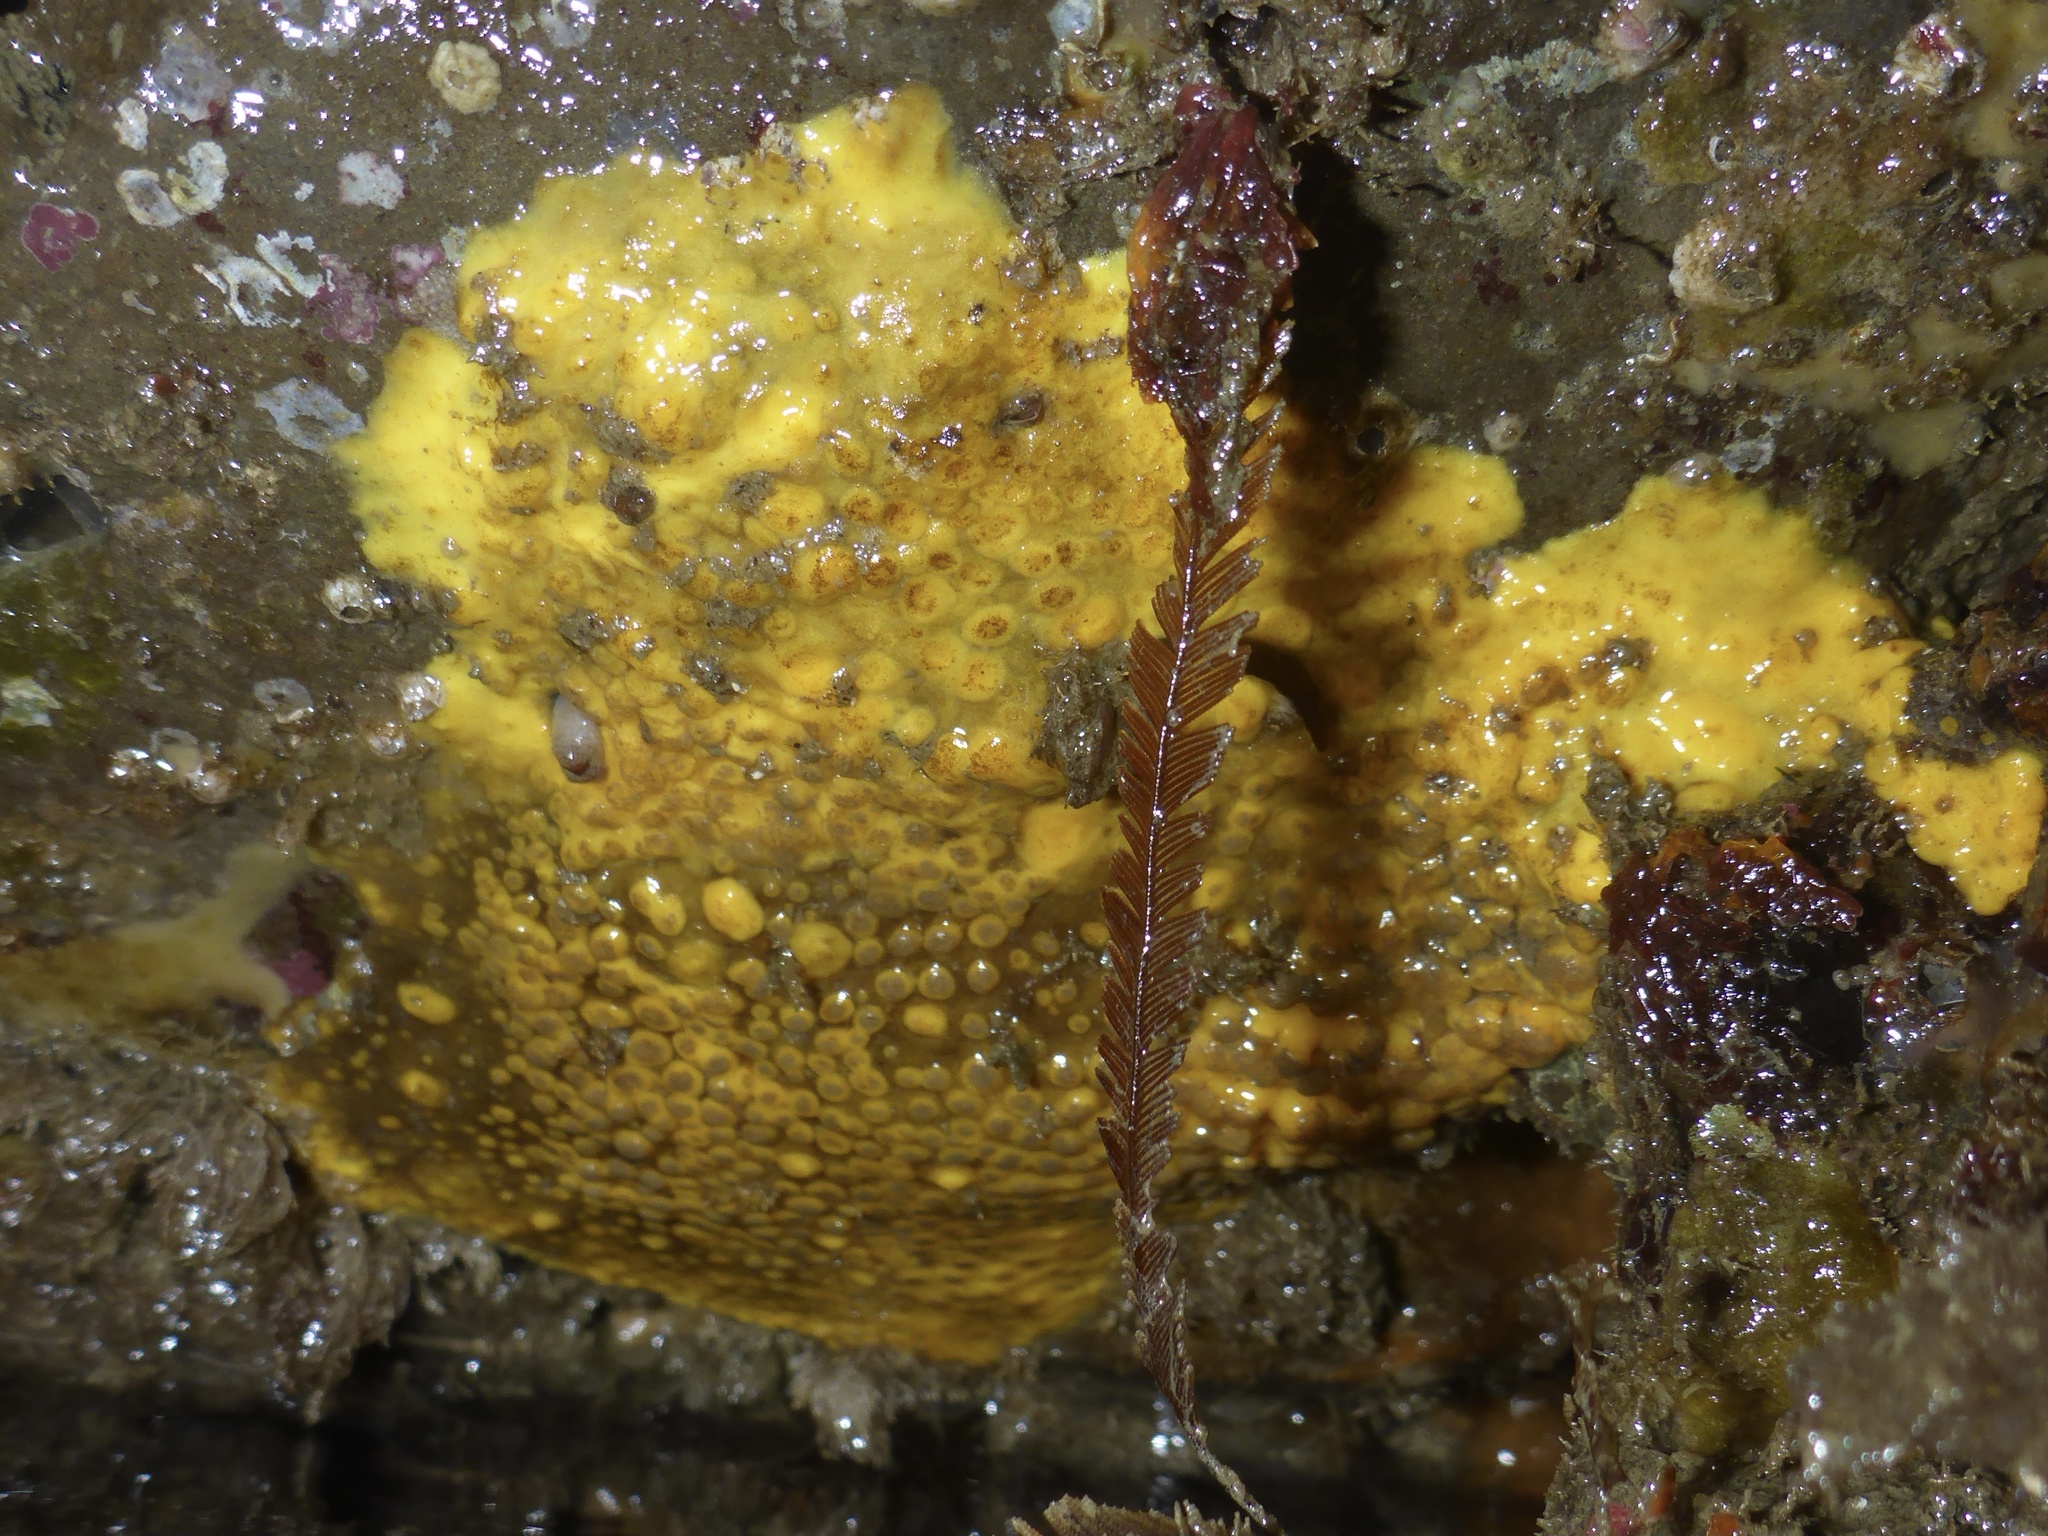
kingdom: Animalia
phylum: Porifera
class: Demospongiae
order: Clionaida
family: Clionaidae
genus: Cliona
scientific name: Cliona californiana
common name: California boring horny sponge
